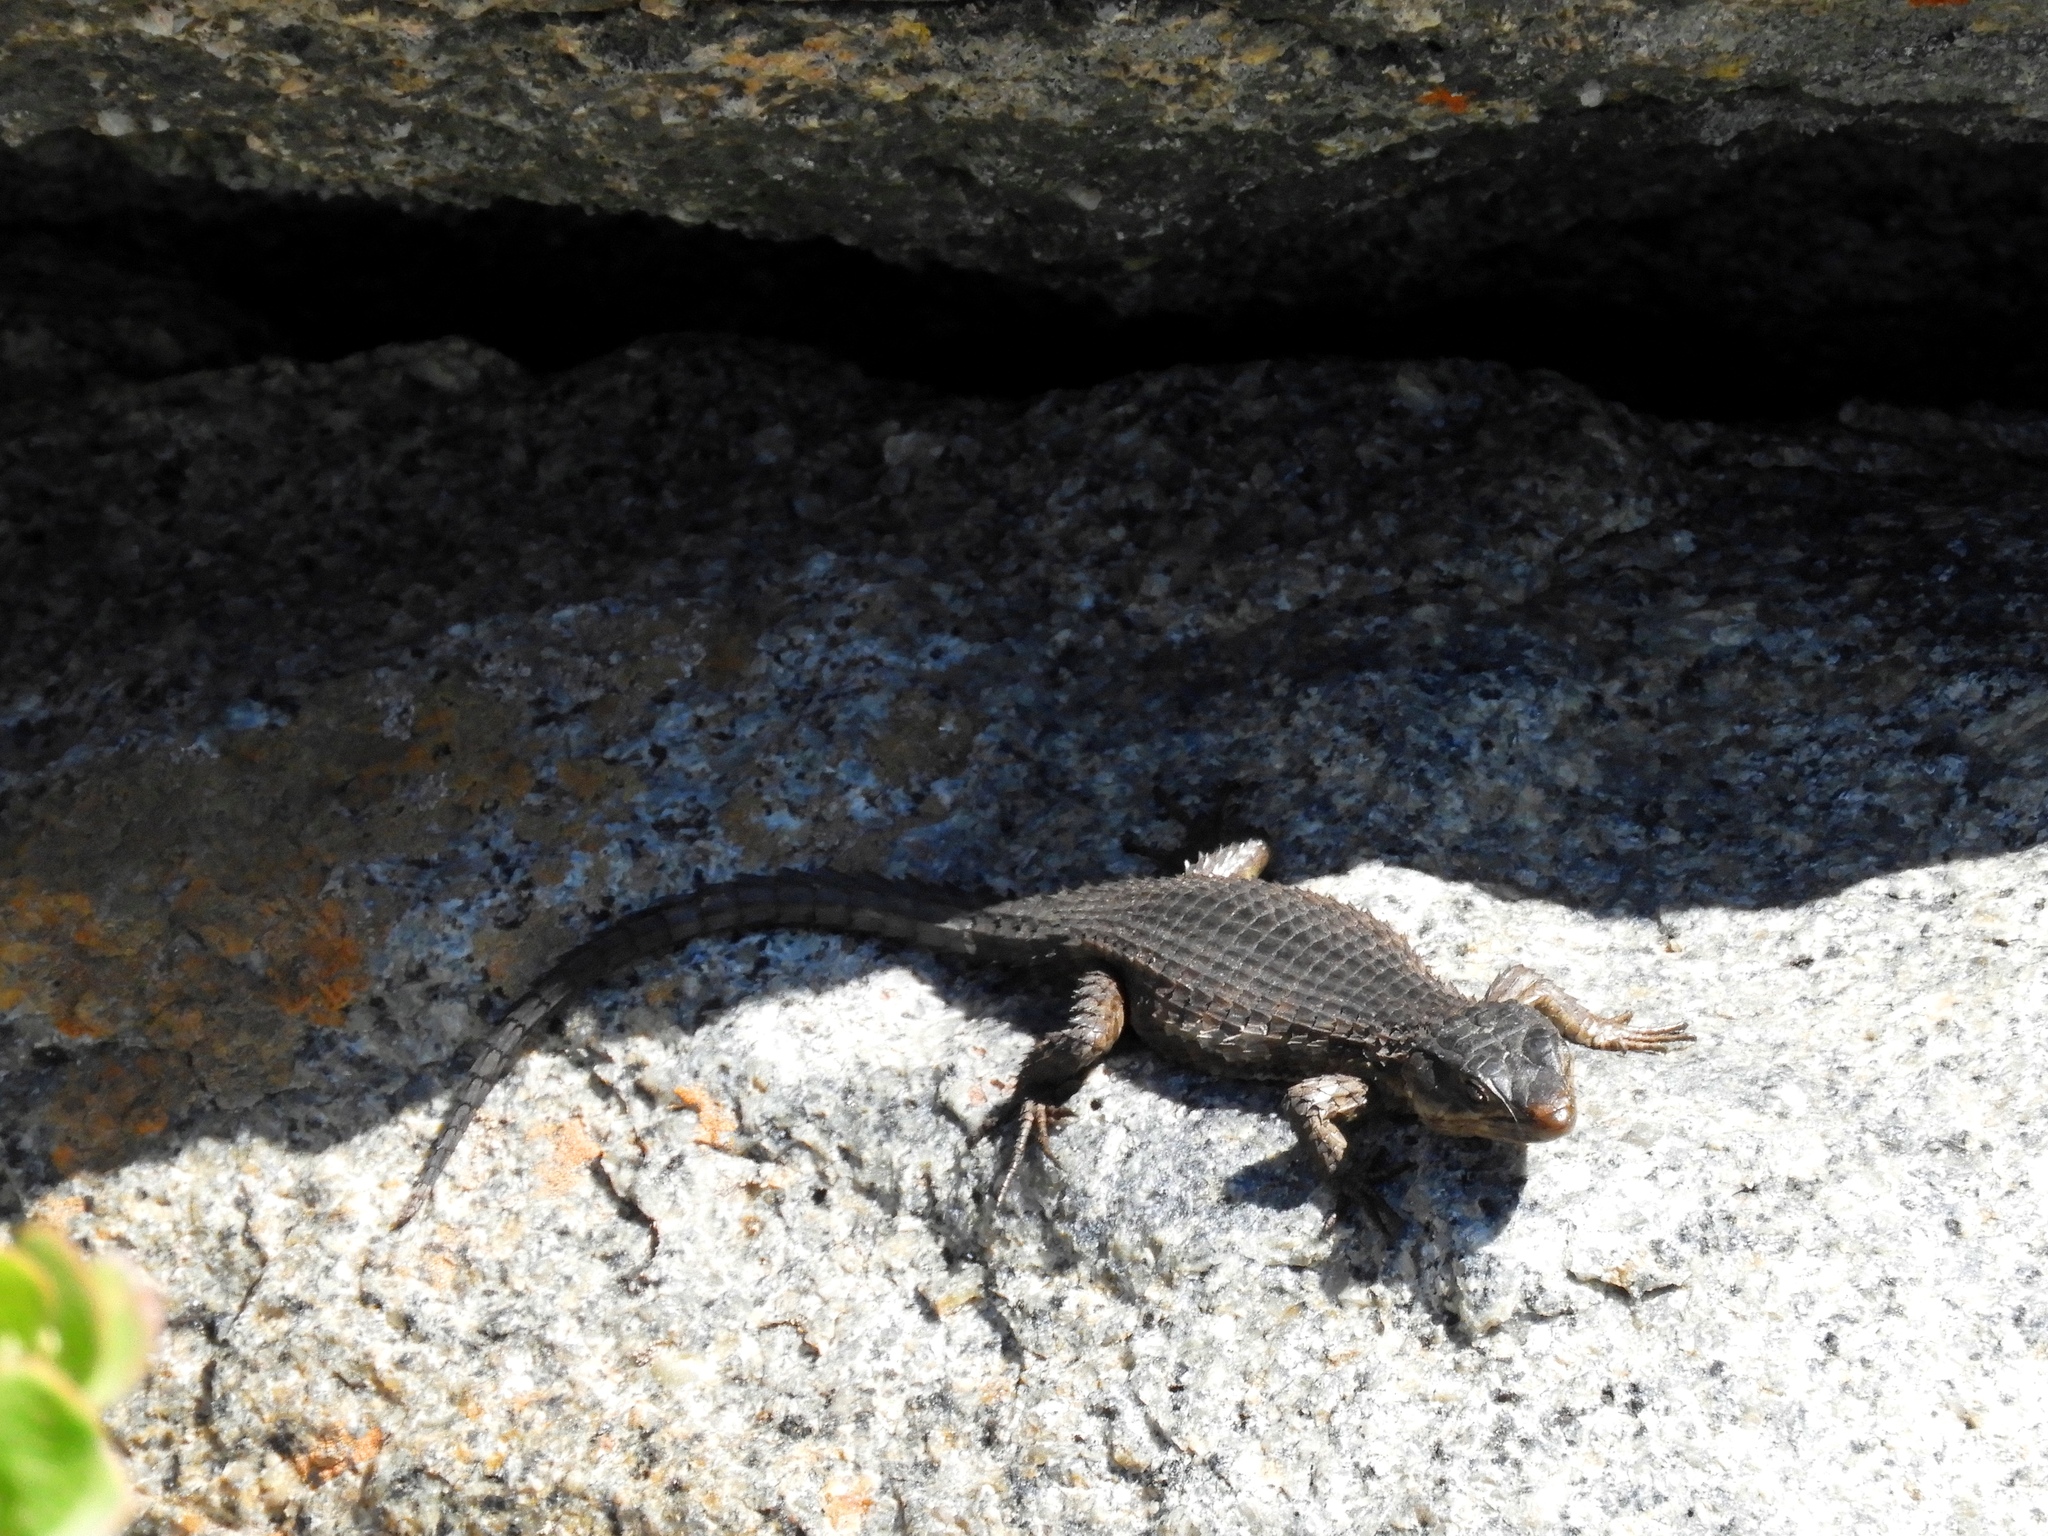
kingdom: Animalia
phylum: Chordata
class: Squamata
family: Cordylidae
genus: Cordylus
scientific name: Cordylus niger
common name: Black girdled lizard
